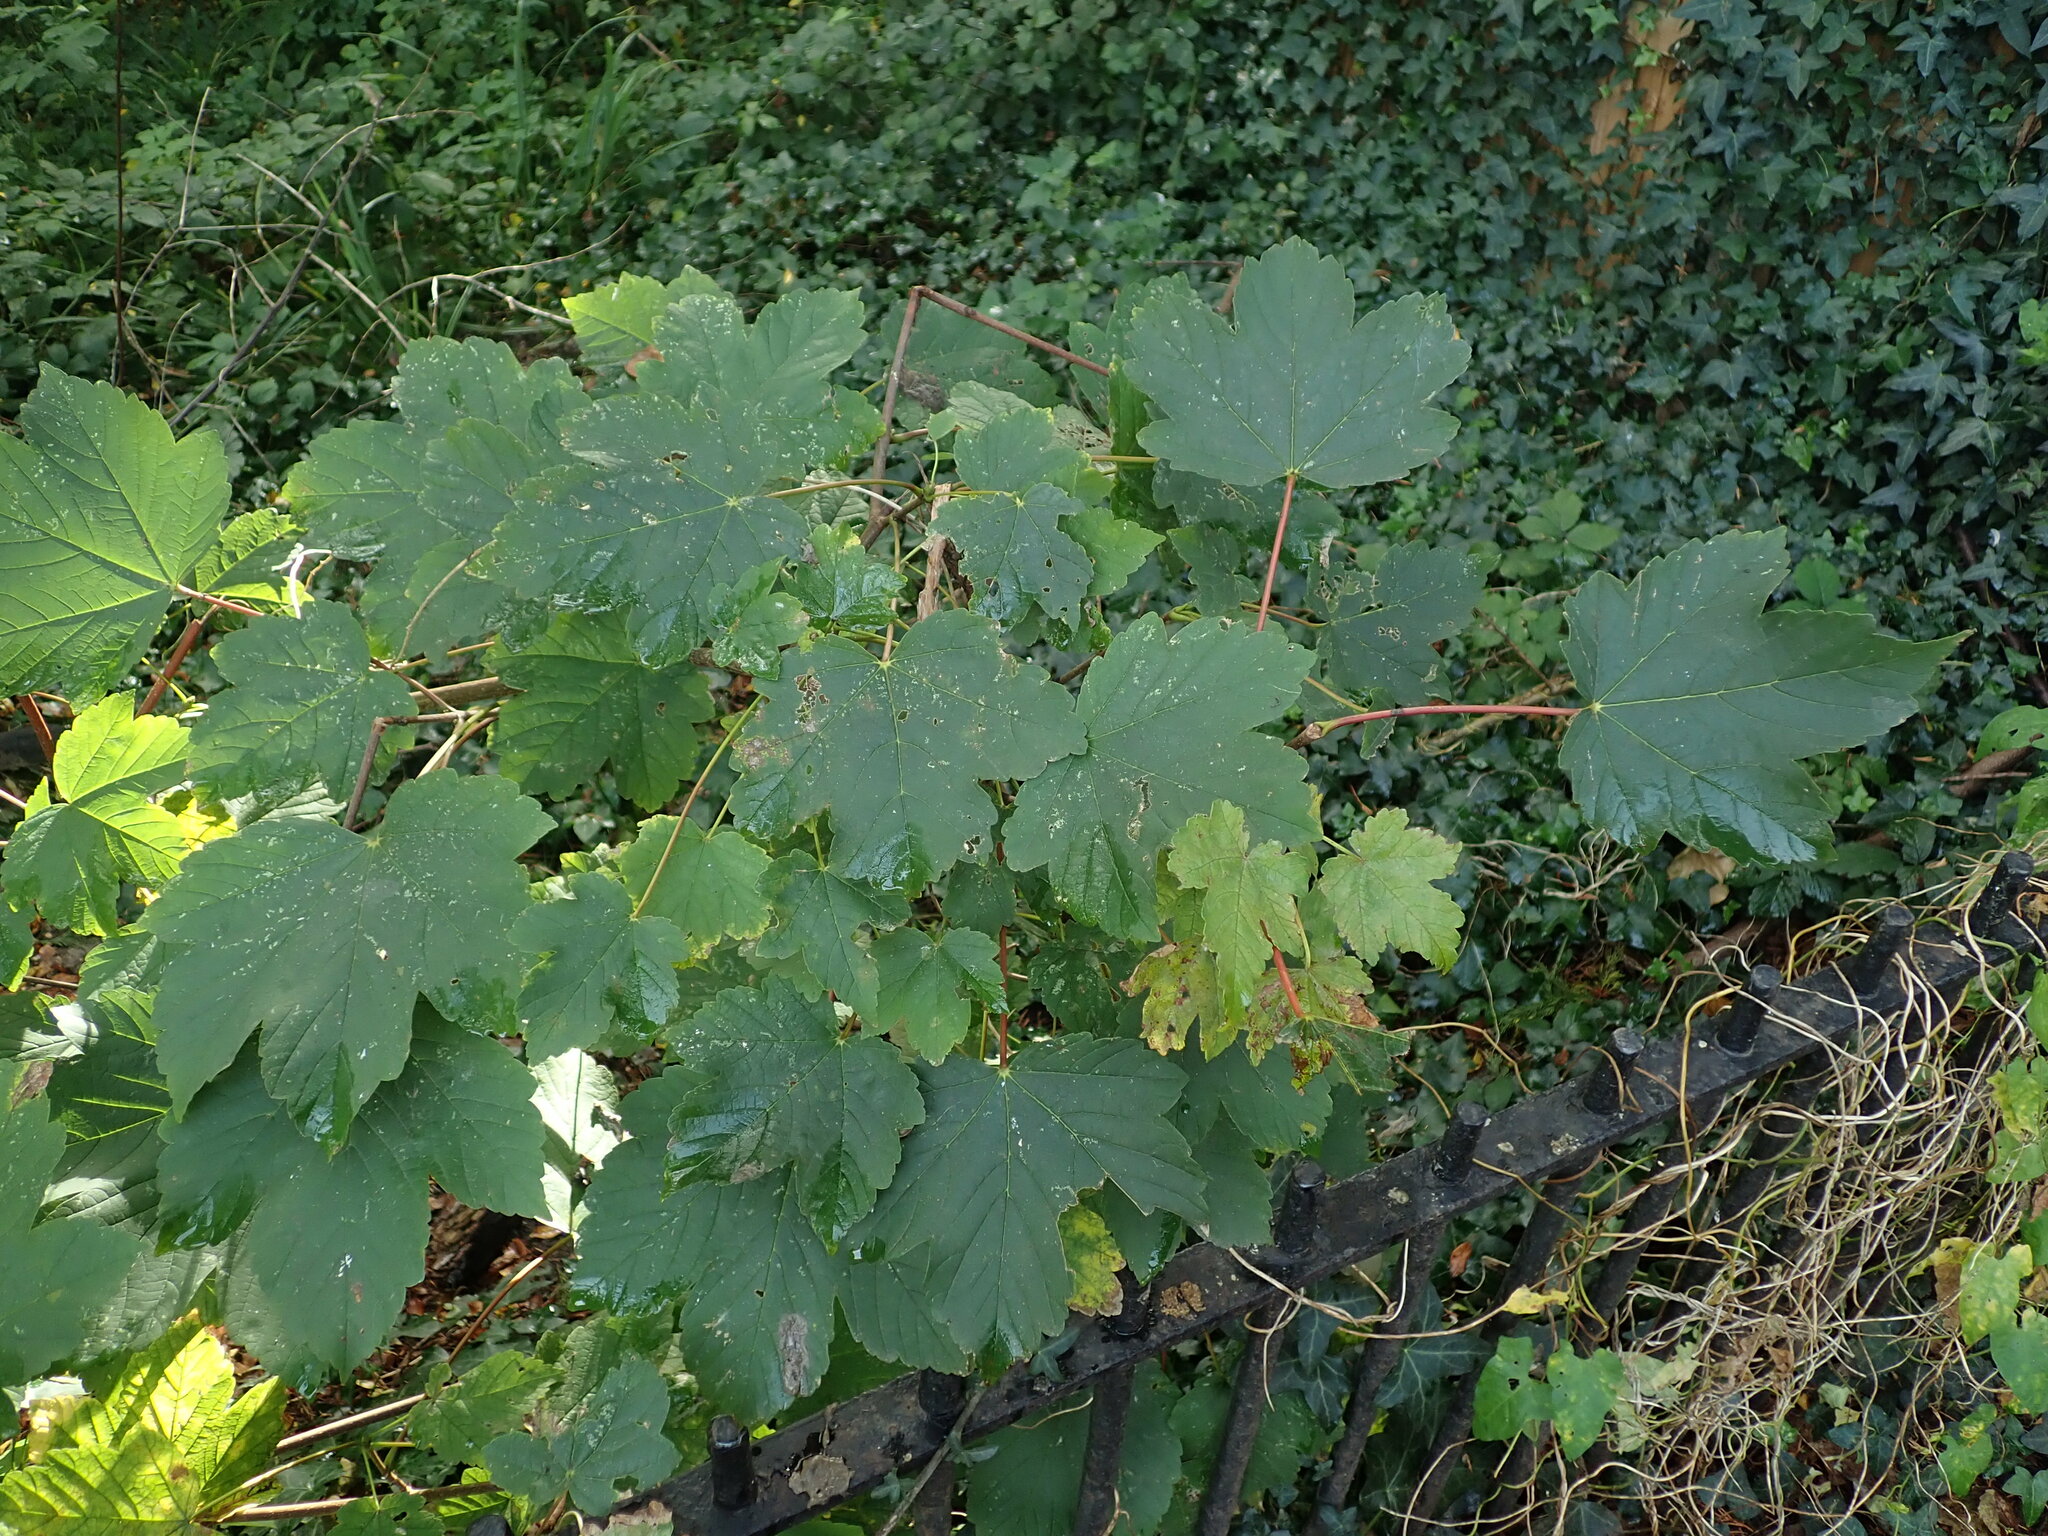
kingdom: Plantae
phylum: Tracheophyta
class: Magnoliopsida
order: Sapindales
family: Sapindaceae
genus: Acer
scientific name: Acer pseudoplatanus
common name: Sycamore
